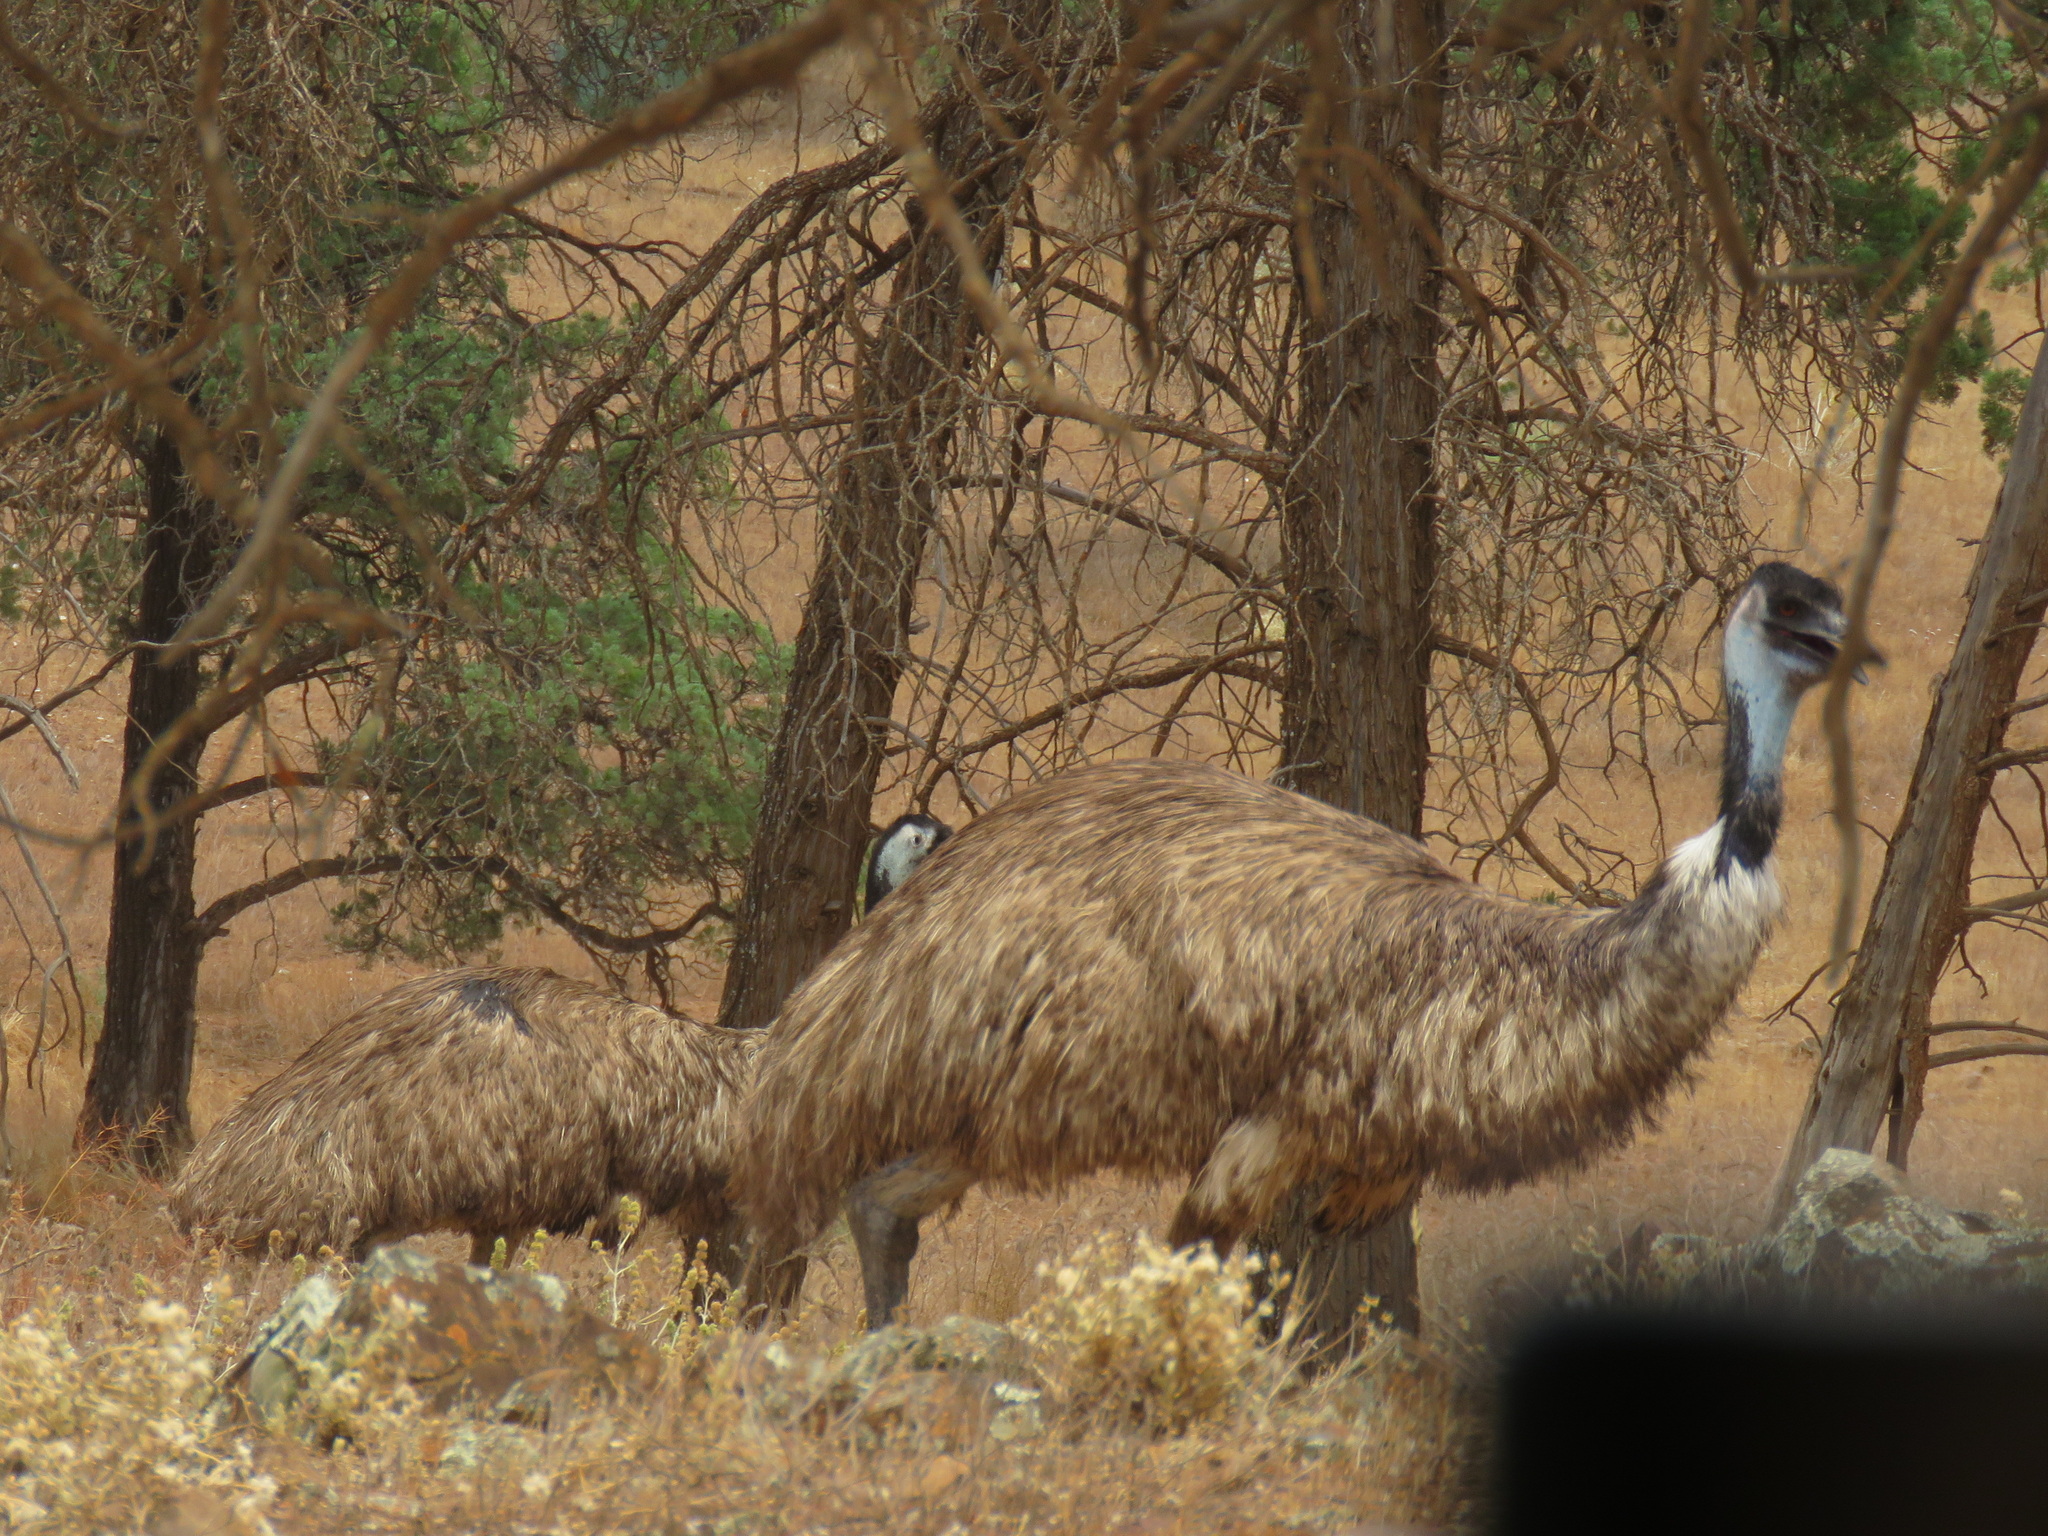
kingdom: Animalia
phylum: Chordata
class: Aves
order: Casuariiformes
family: Dromaiidae
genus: Dromaius
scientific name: Dromaius novaehollandiae
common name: Emu
